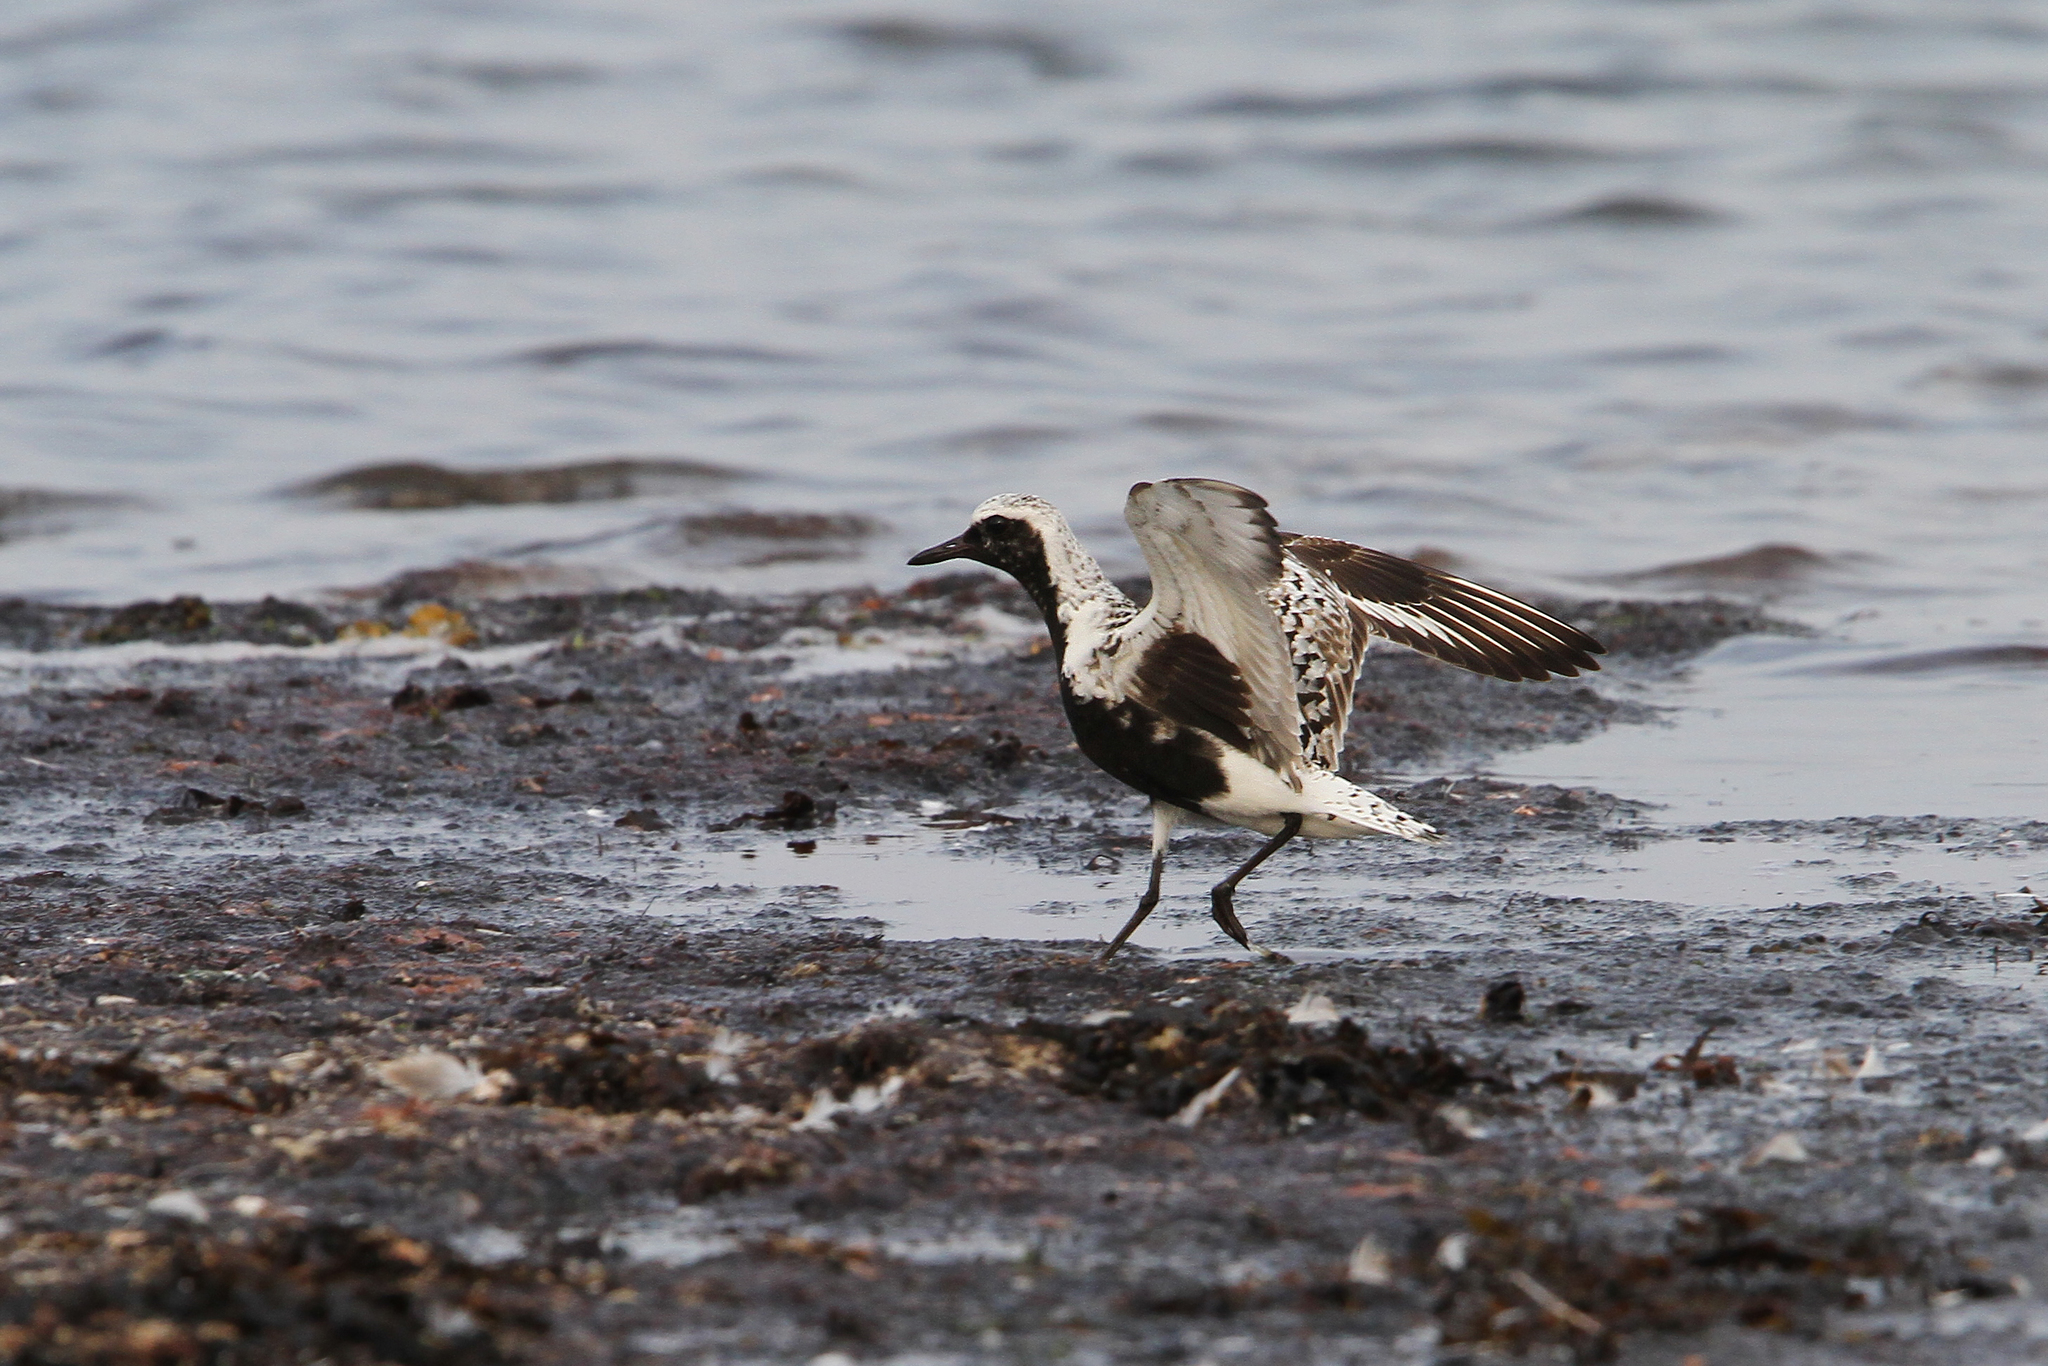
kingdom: Animalia
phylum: Chordata
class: Aves
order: Charadriiformes
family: Charadriidae
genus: Pluvialis
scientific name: Pluvialis squatarola
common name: Grey plover
